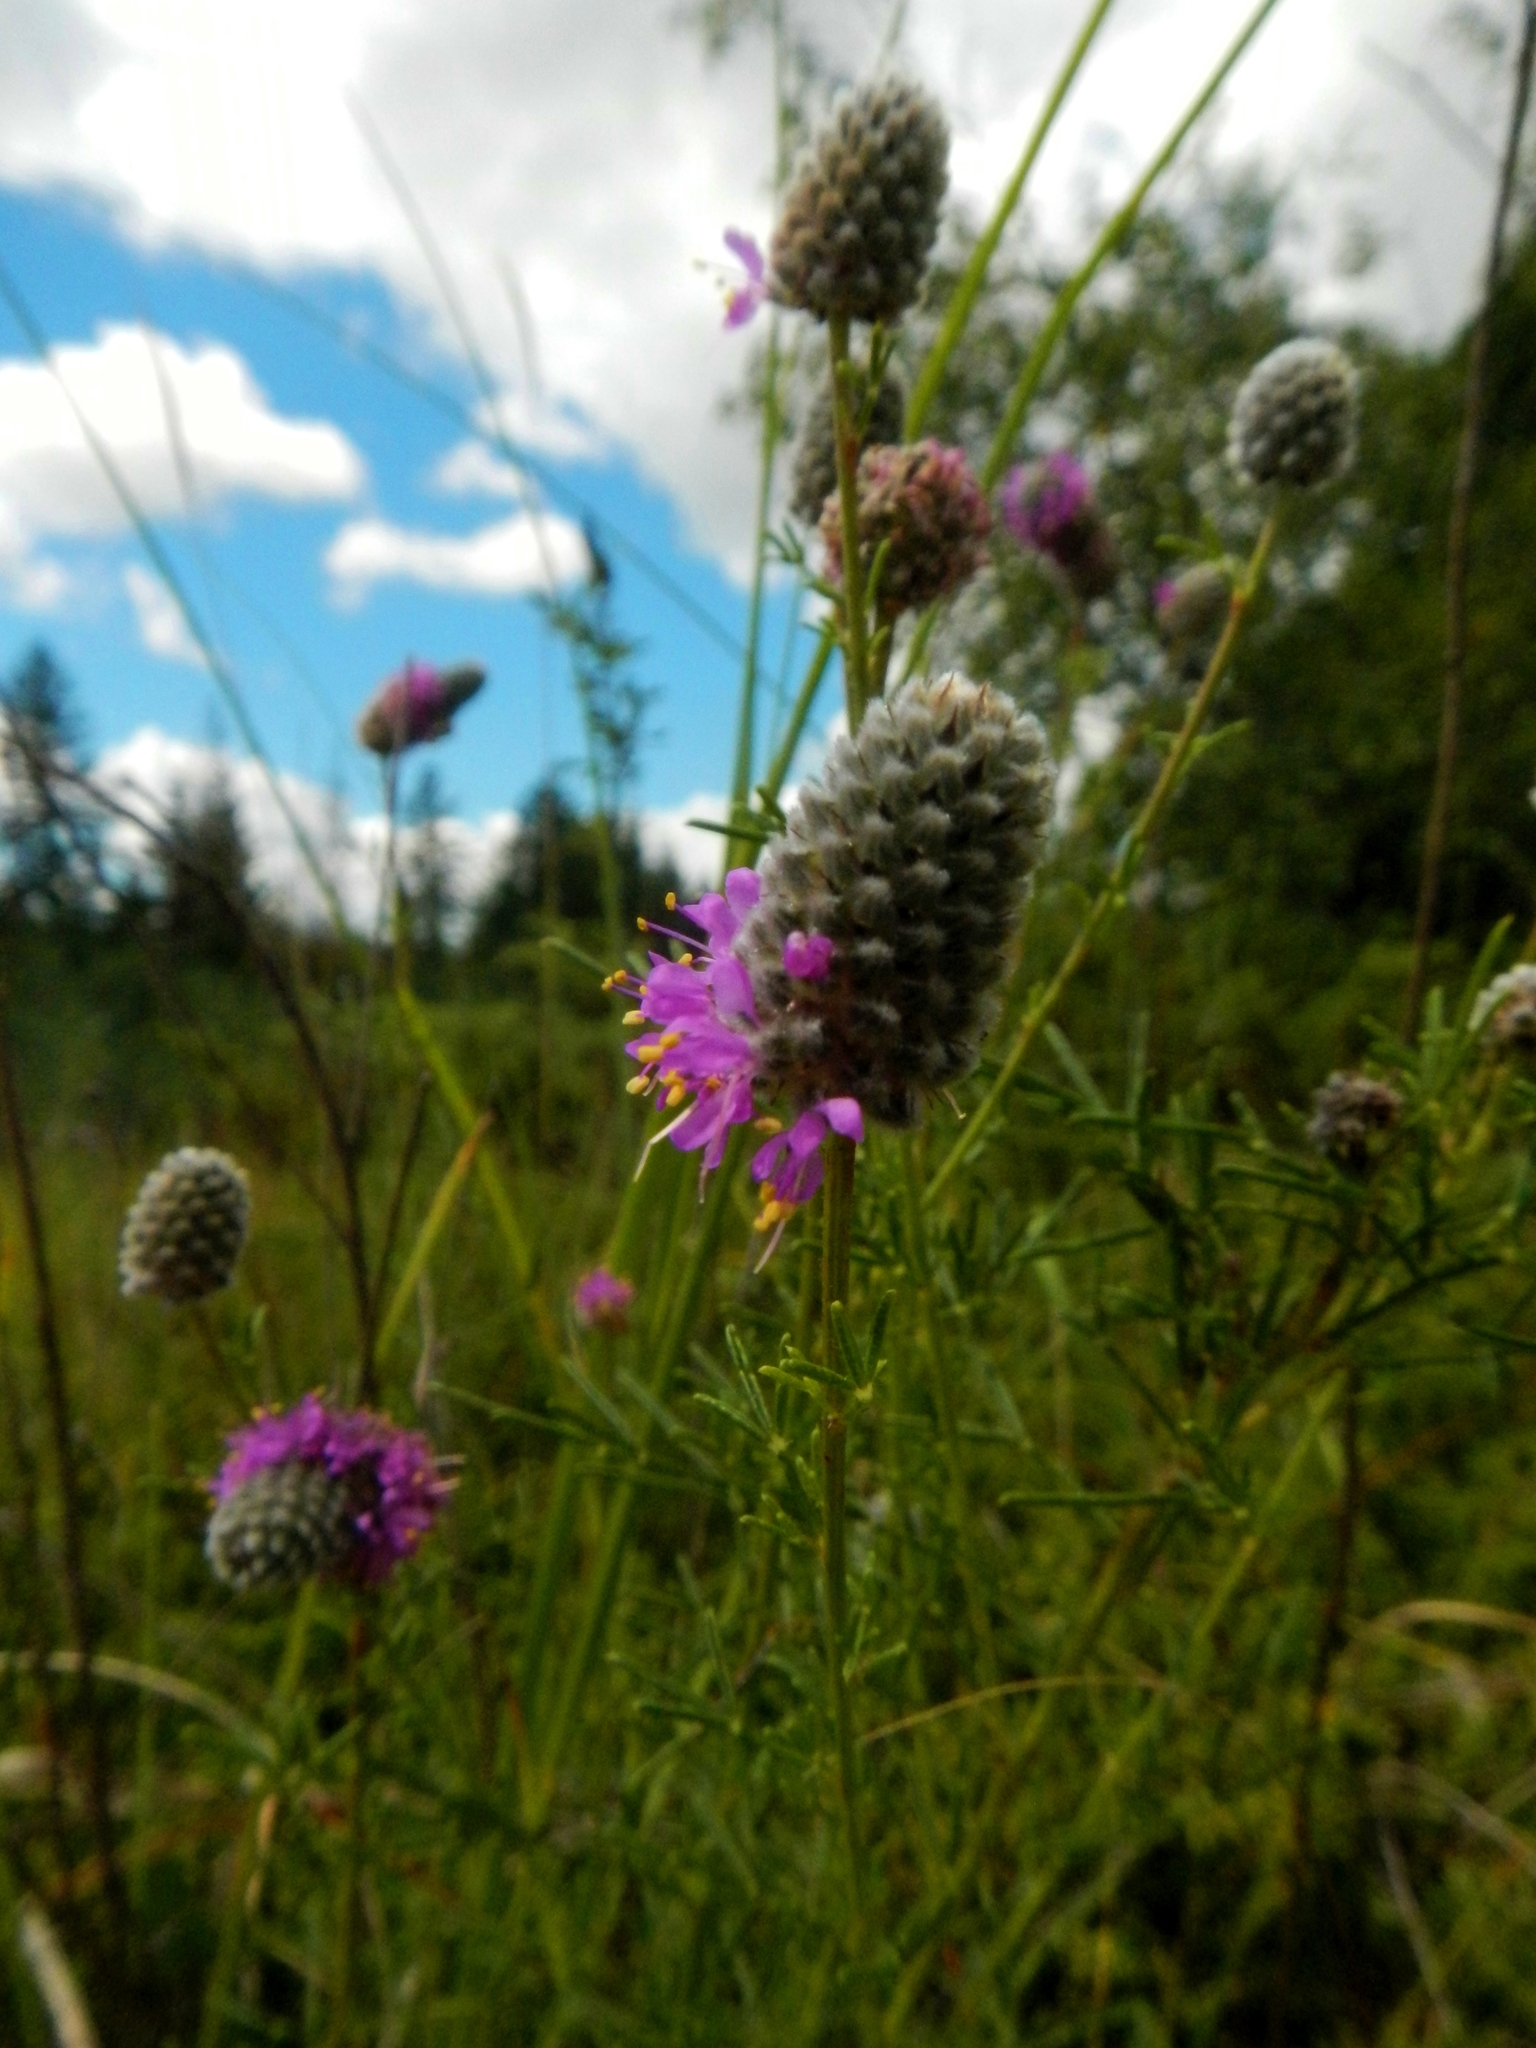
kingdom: Plantae
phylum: Tracheophyta
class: Magnoliopsida
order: Fabales
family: Fabaceae
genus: Dalea
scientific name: Dalea purpurea
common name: Purple prairie-clover
